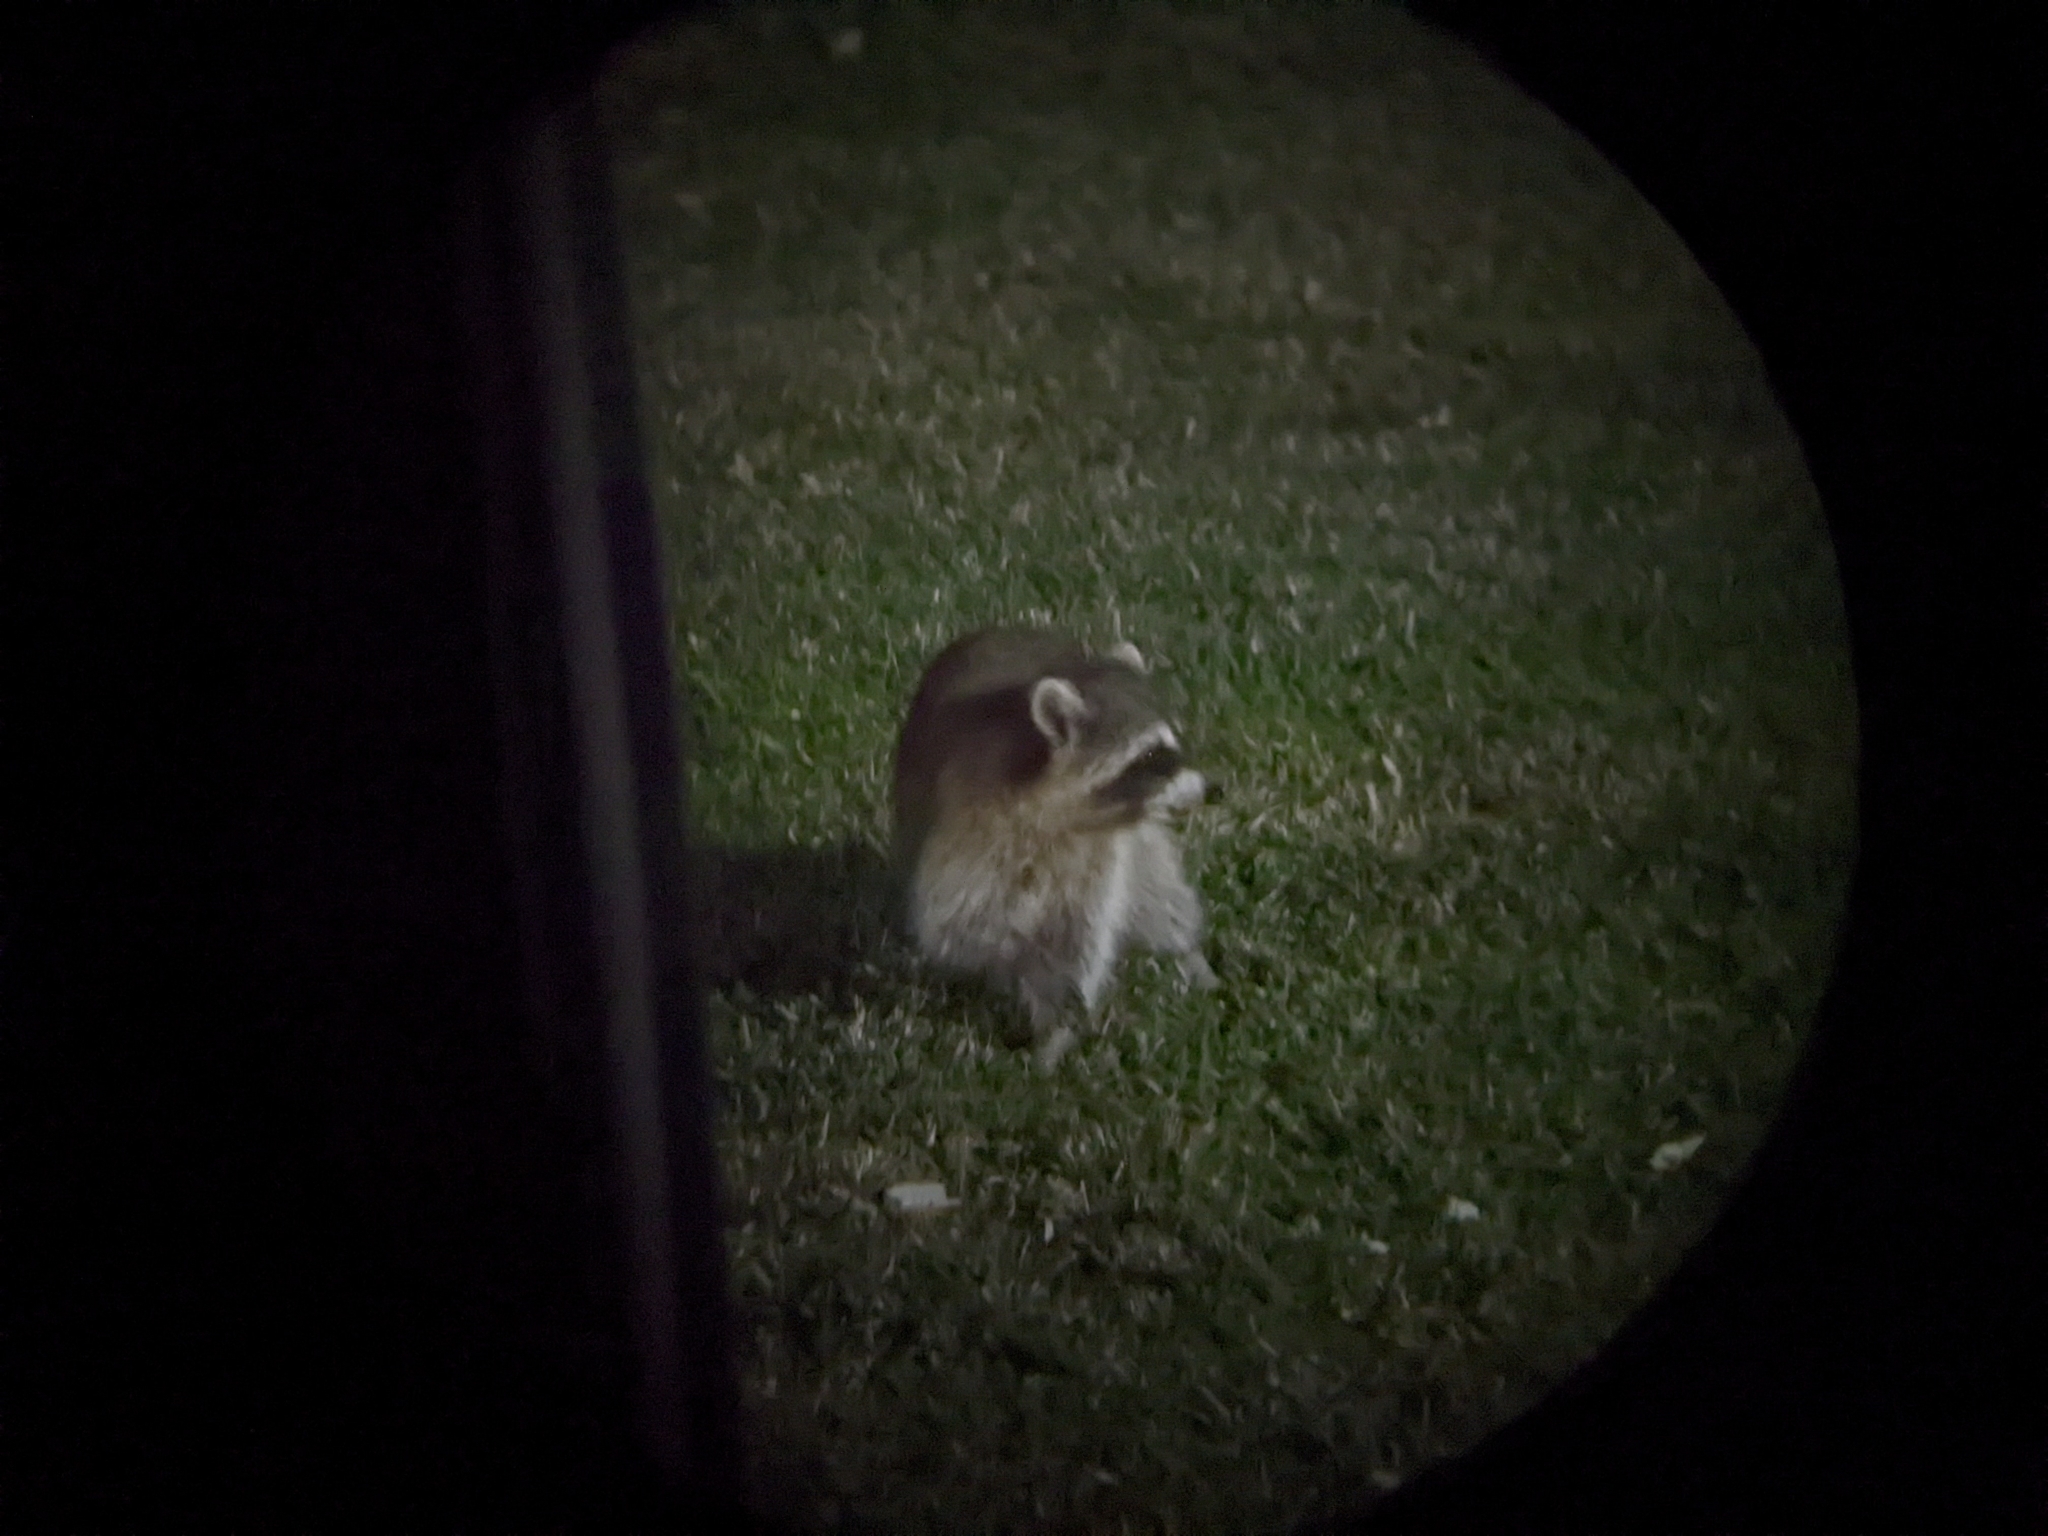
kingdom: Animalia
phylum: Chordata
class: Mammalia
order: Carnivora
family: Procyonidae
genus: Procyon
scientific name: Procyon lotor
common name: Raccoon
